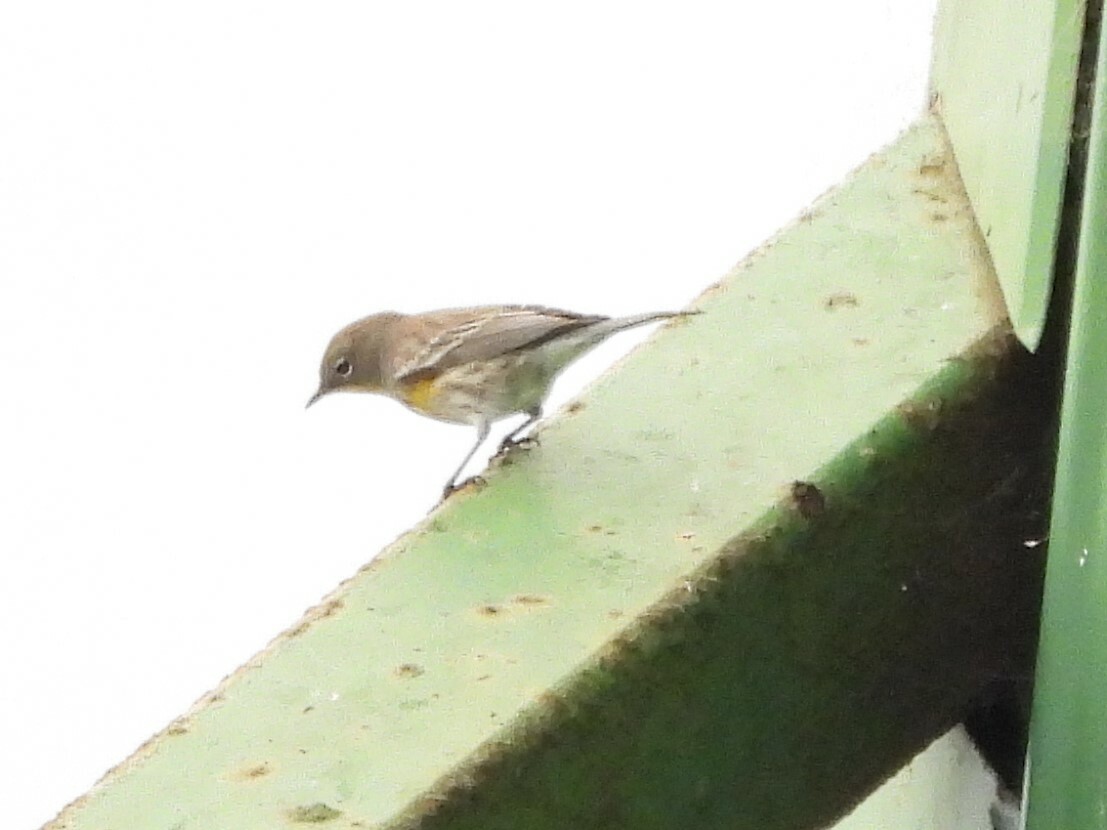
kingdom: Animalia
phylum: Chordata
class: Aves
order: Passeriformes
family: Parulidae
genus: Setophaga
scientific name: Setophaga coronata
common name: Myrtle warbler
